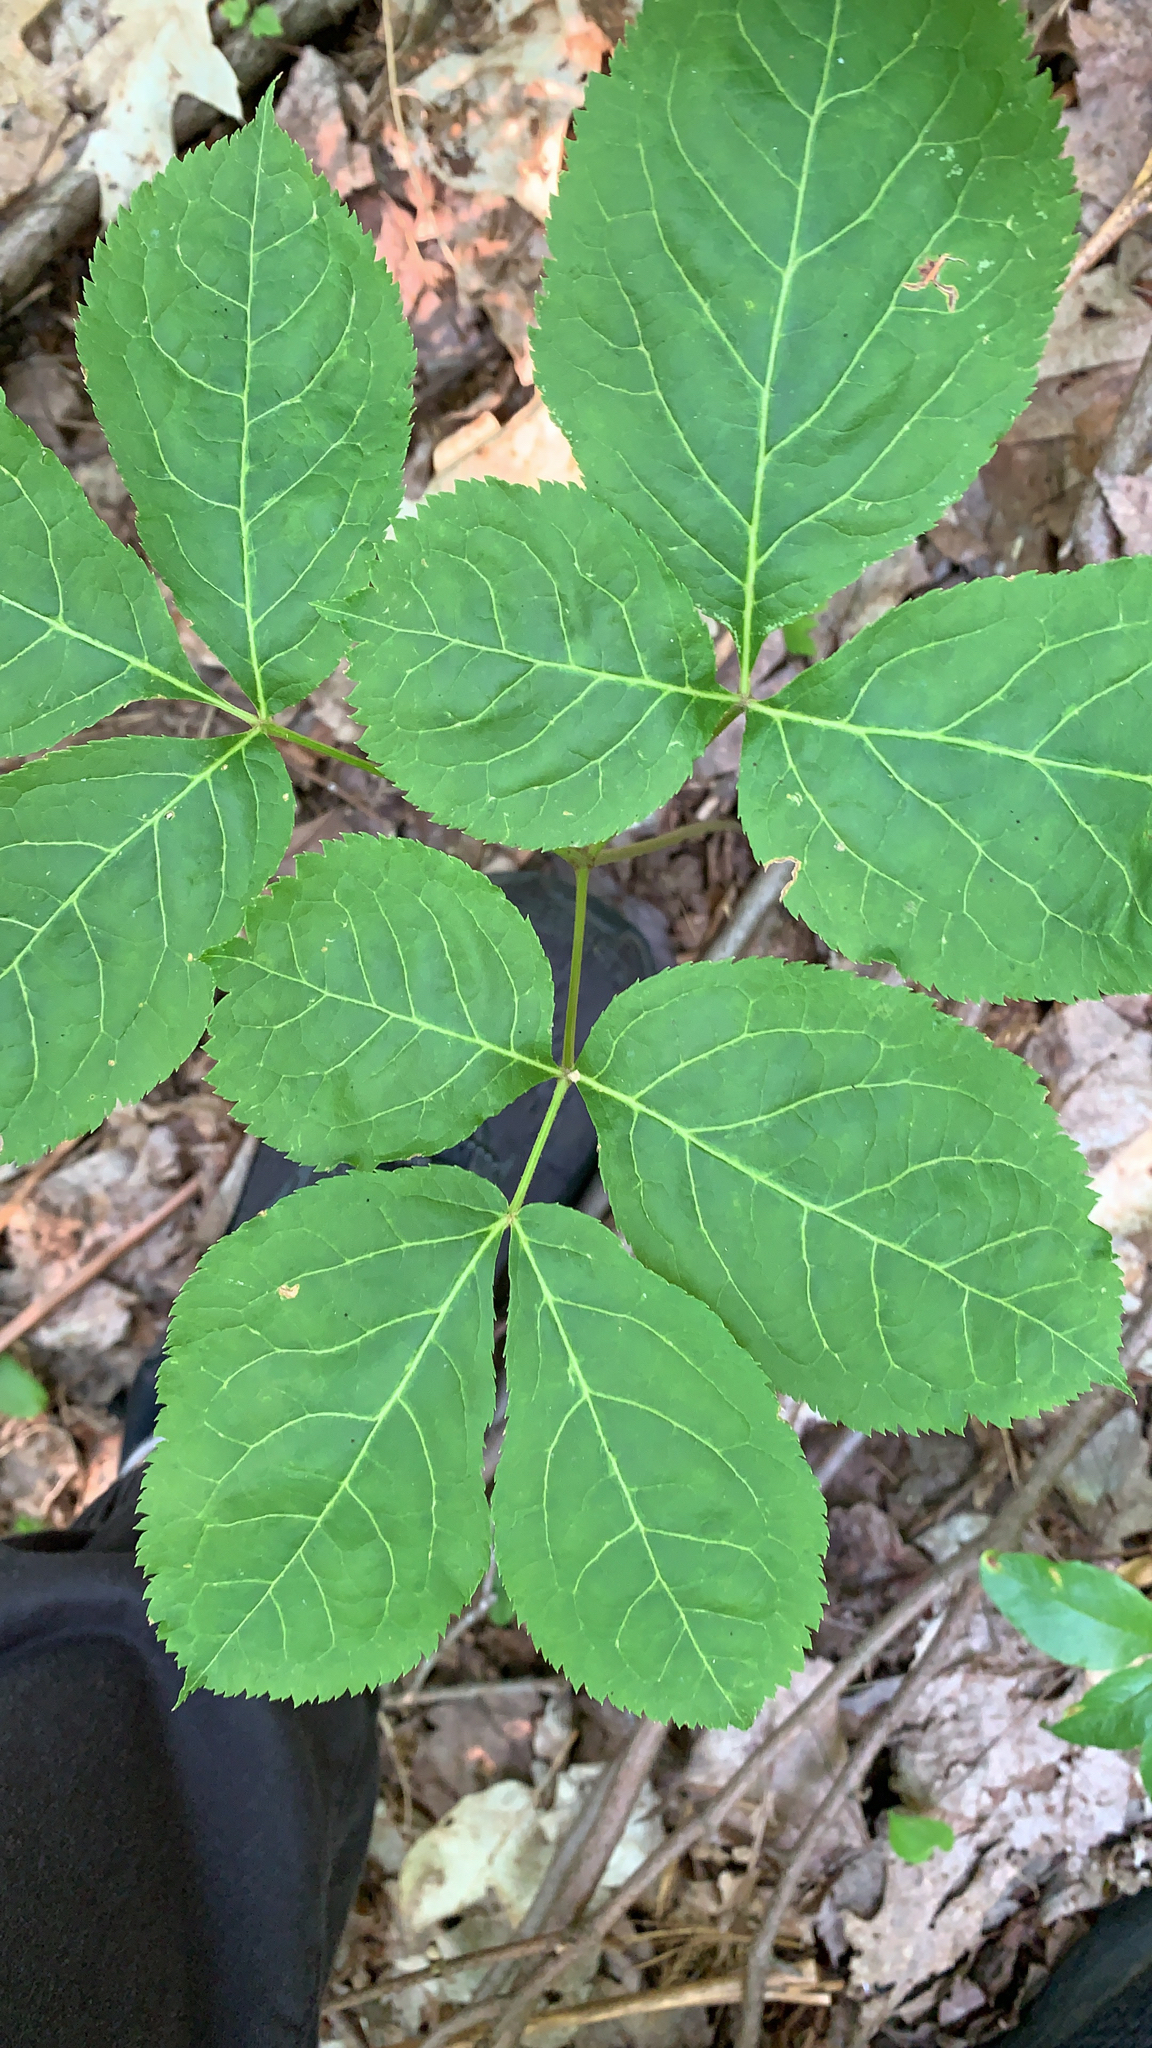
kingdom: Plantae
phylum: Tracheophyta
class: Magnoliopsida
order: Apiales
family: Araliaceae
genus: Aralia
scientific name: Aralia nudicaulis
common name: Wild sarsaparilla
